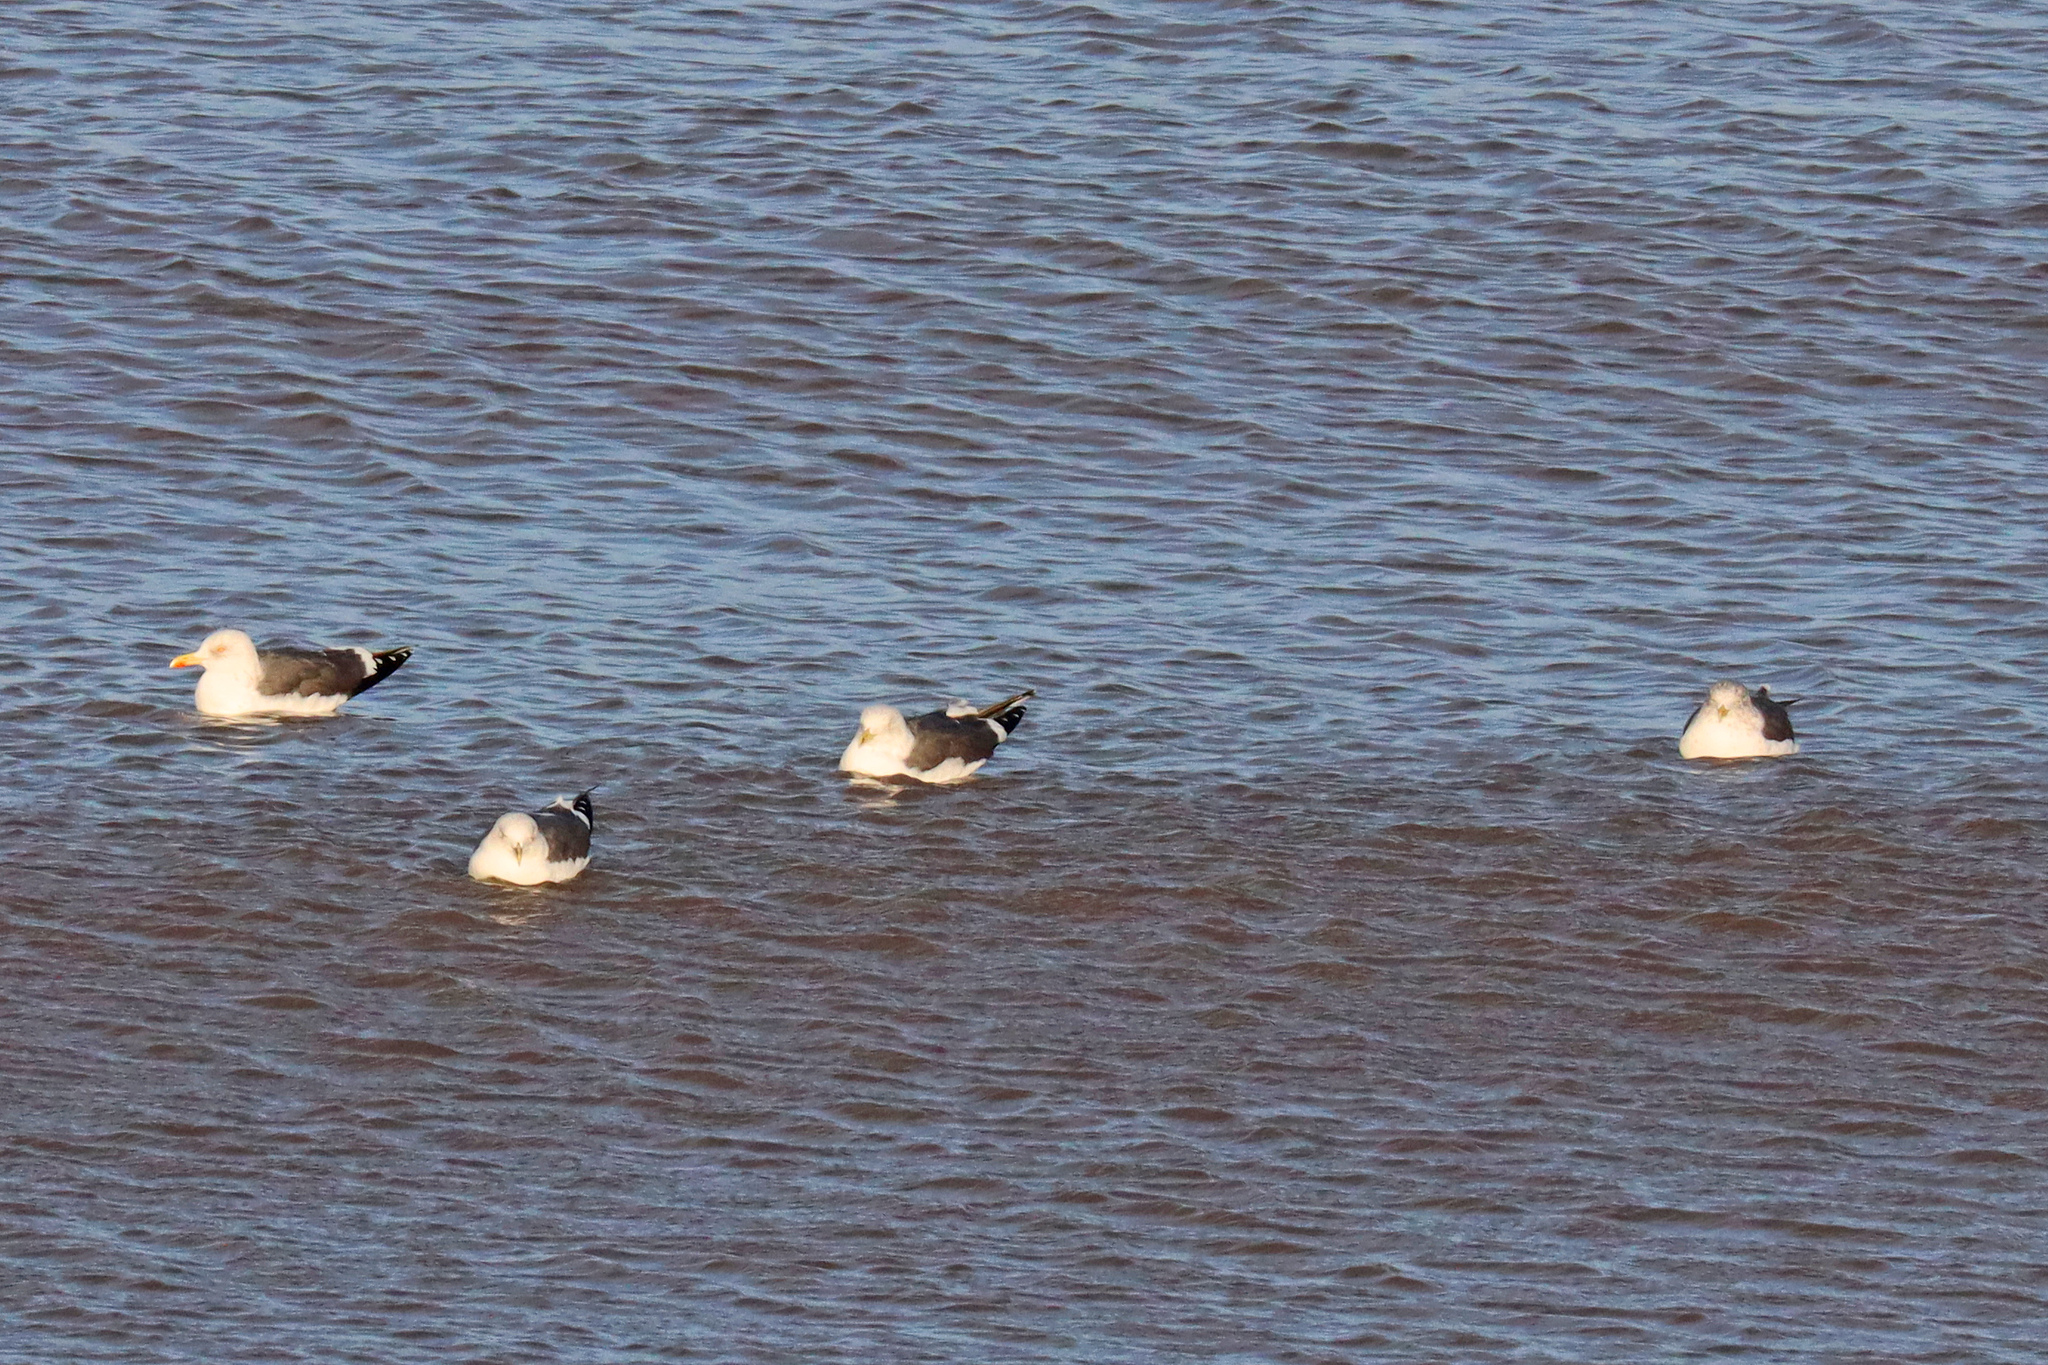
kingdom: Animalia
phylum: Chordata
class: Aves
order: Charadriiformes
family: Laridae
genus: Larus
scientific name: Larus fuscus
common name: Lesser black-backed gull
